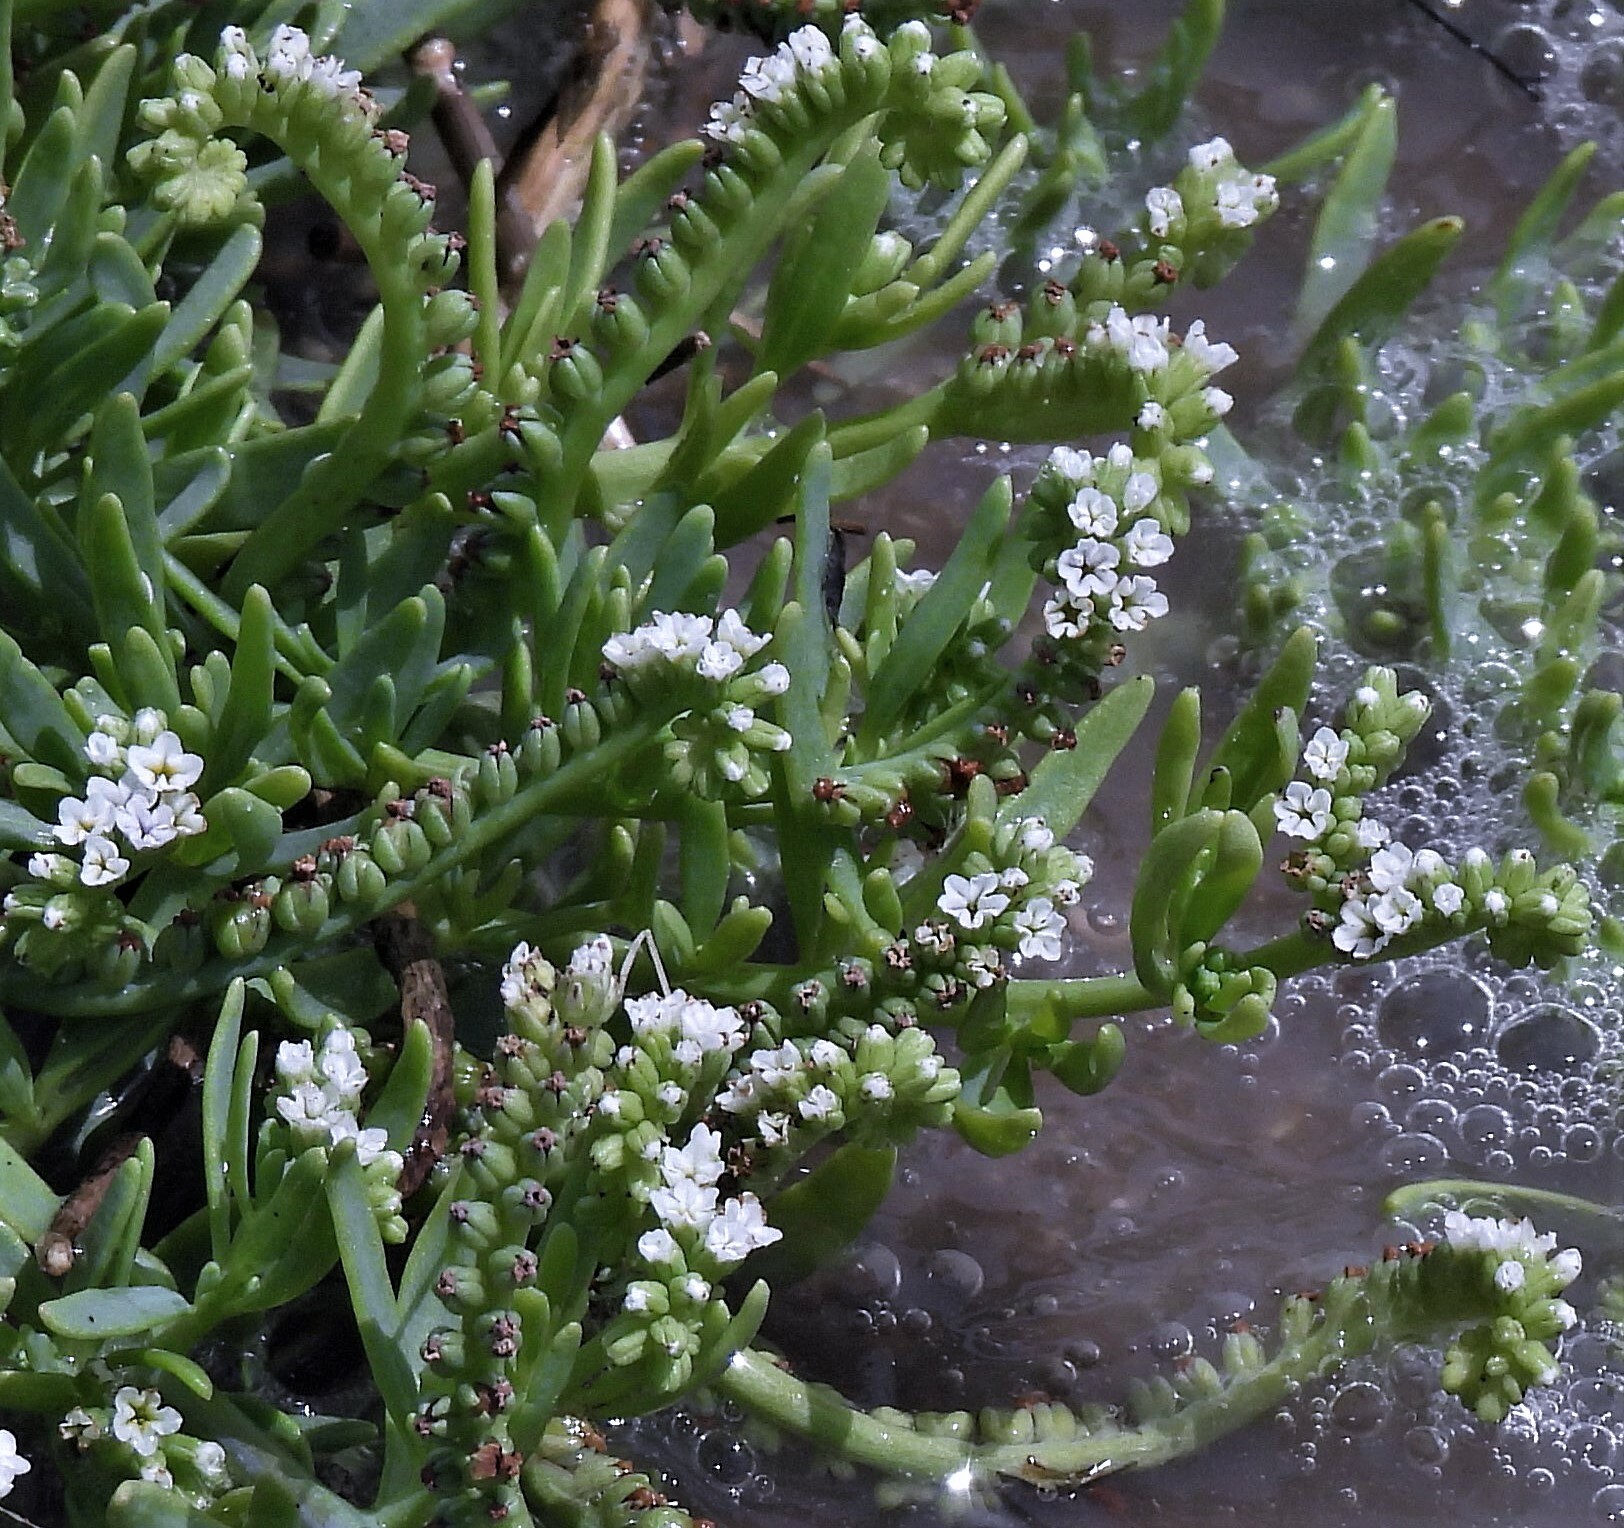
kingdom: Plantae
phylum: Tracheophyta
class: Magnoliopsida
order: Boraginales
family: Heliotropiaceae
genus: Heliotropium
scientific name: Heliotropium curassavicum
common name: Seaside heliotrope
